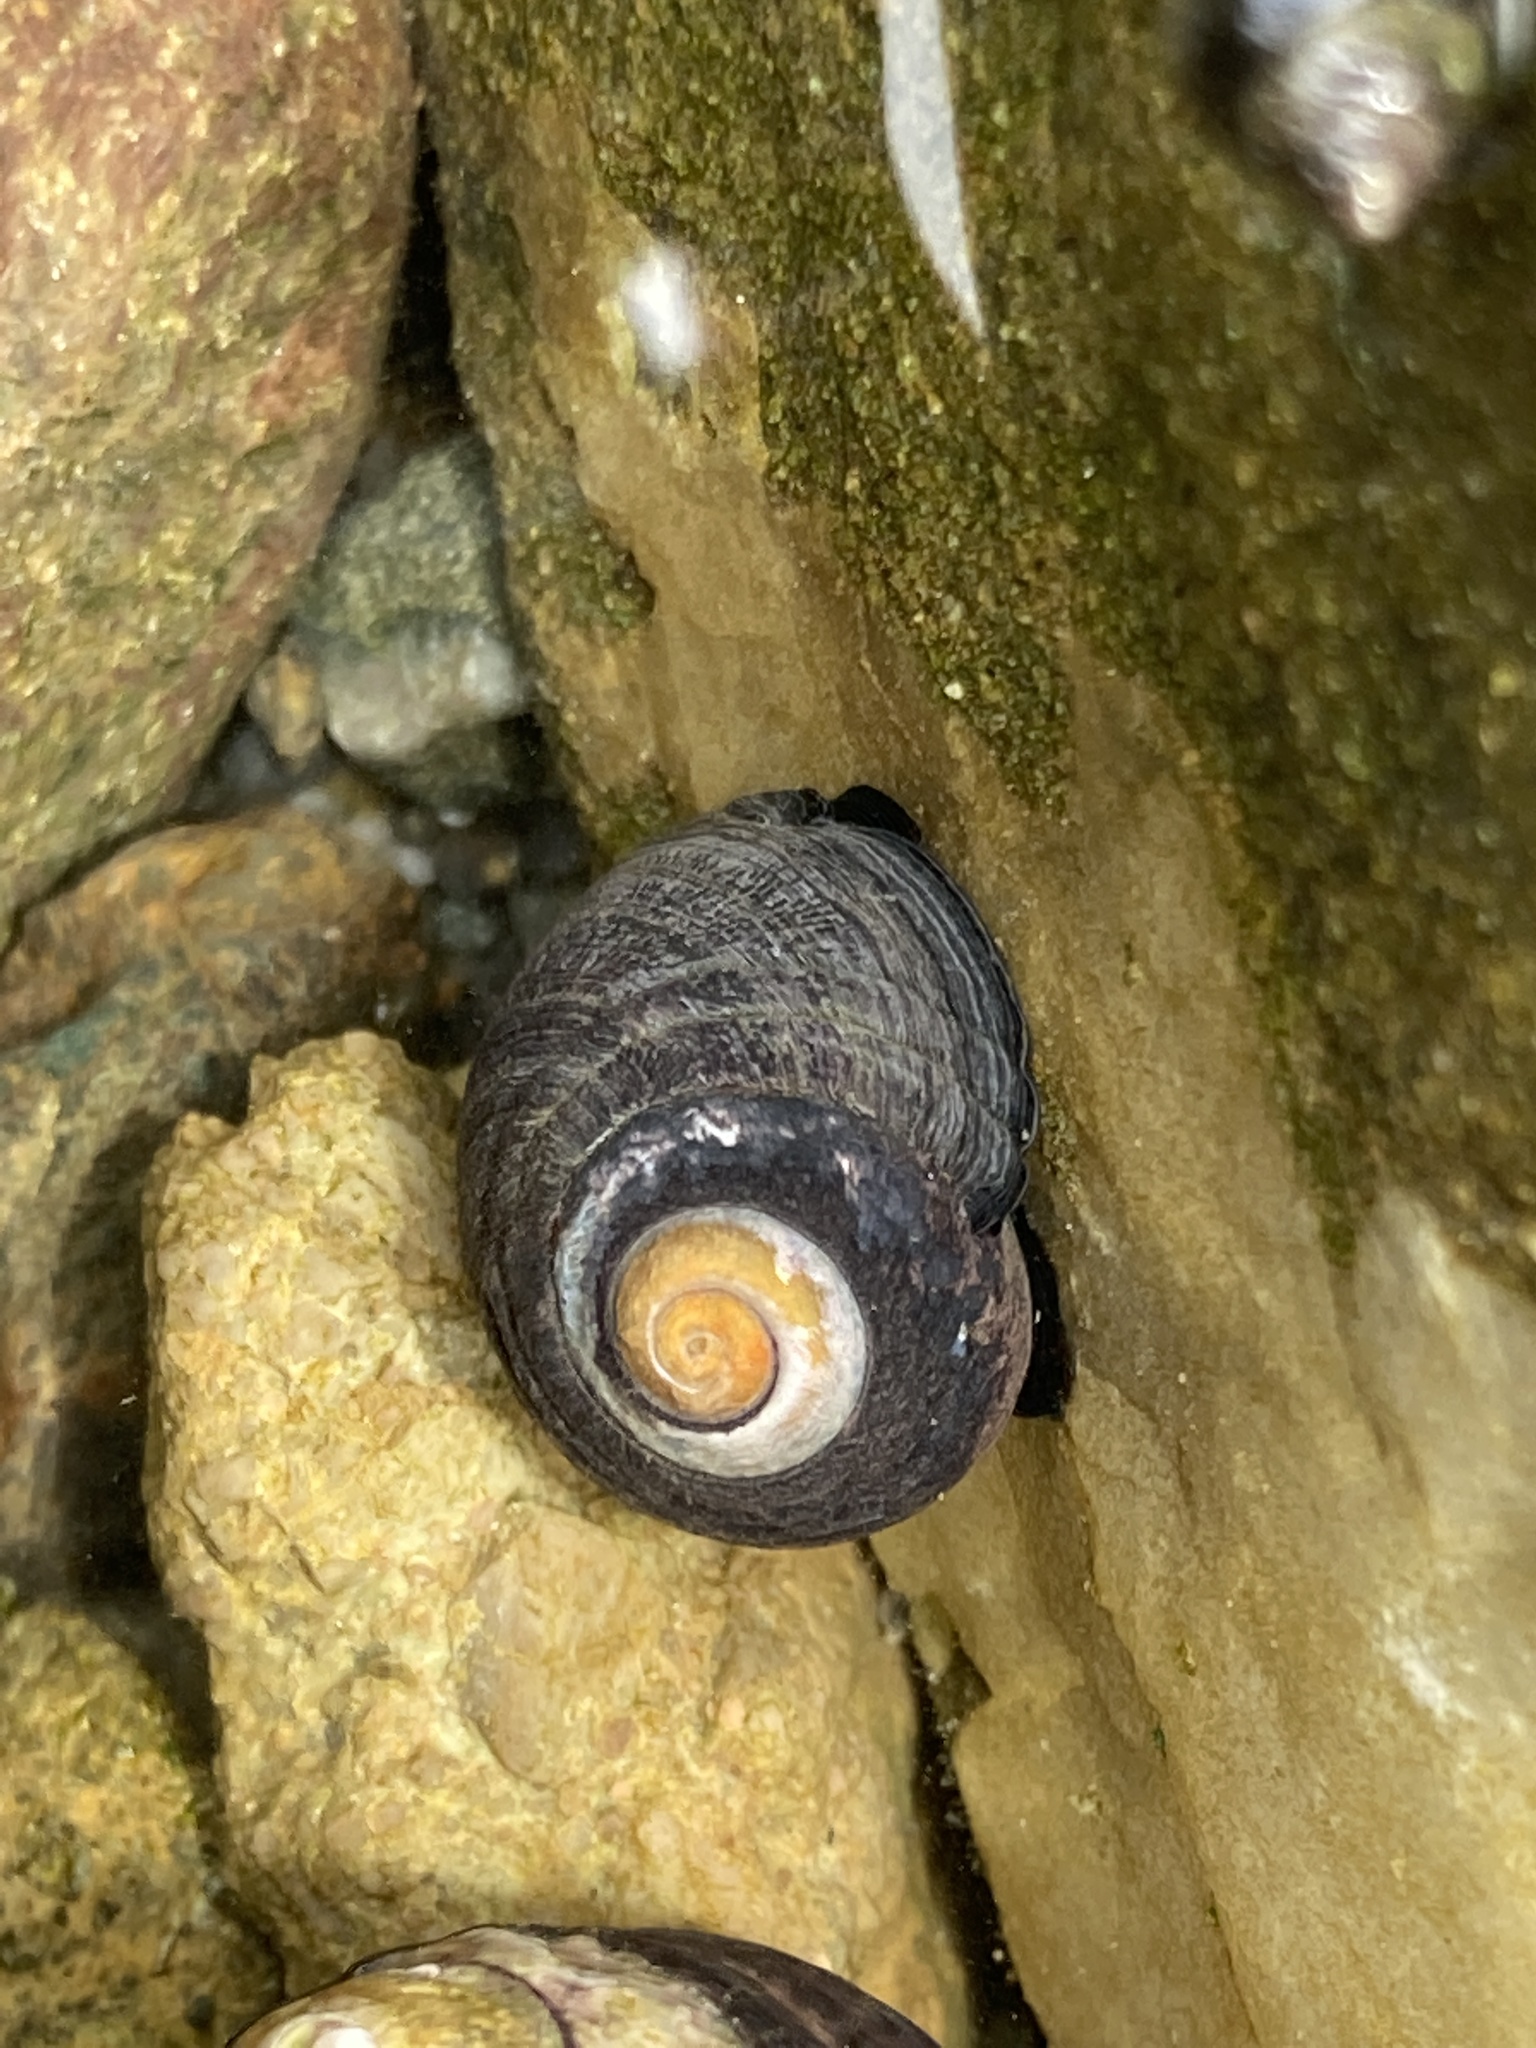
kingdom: Animalia
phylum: Mollusca
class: Gastropoda
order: Trochida
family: Tegulidae
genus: Tegula
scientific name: Tegula funebralis
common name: Black tegula
